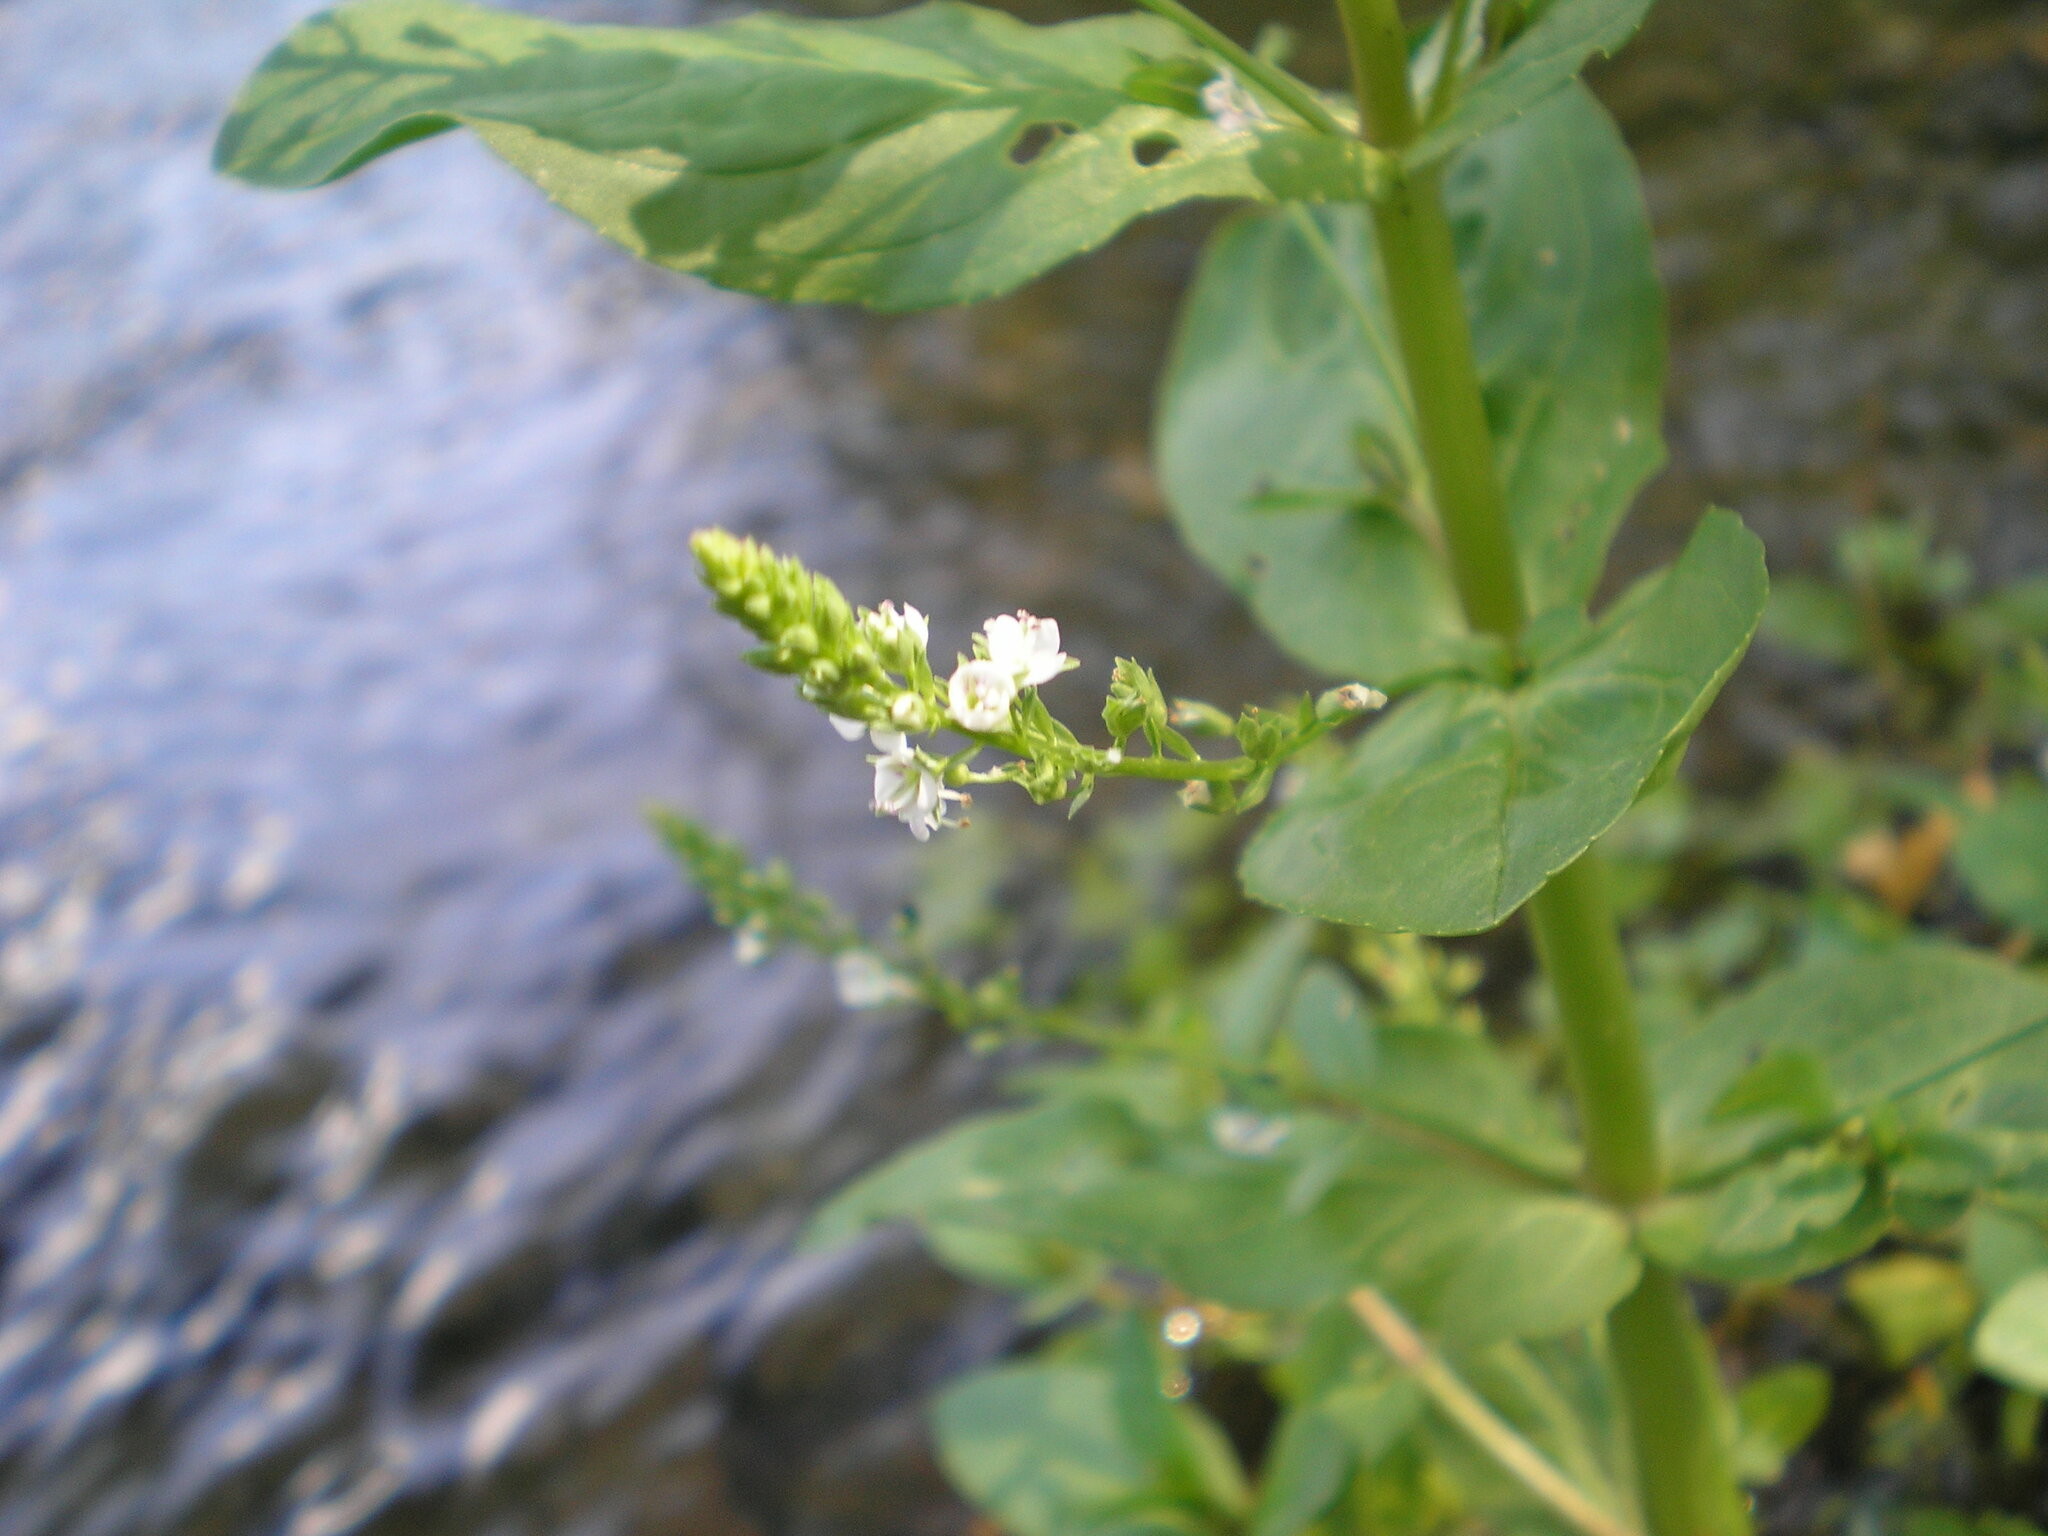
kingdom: Plantae
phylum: Tracheophyta
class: Magnoliopsida
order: Lamiales
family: Plantaginaceae
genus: Veronica
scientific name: Veronica anagallis-aquatica
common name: Water speedwell
